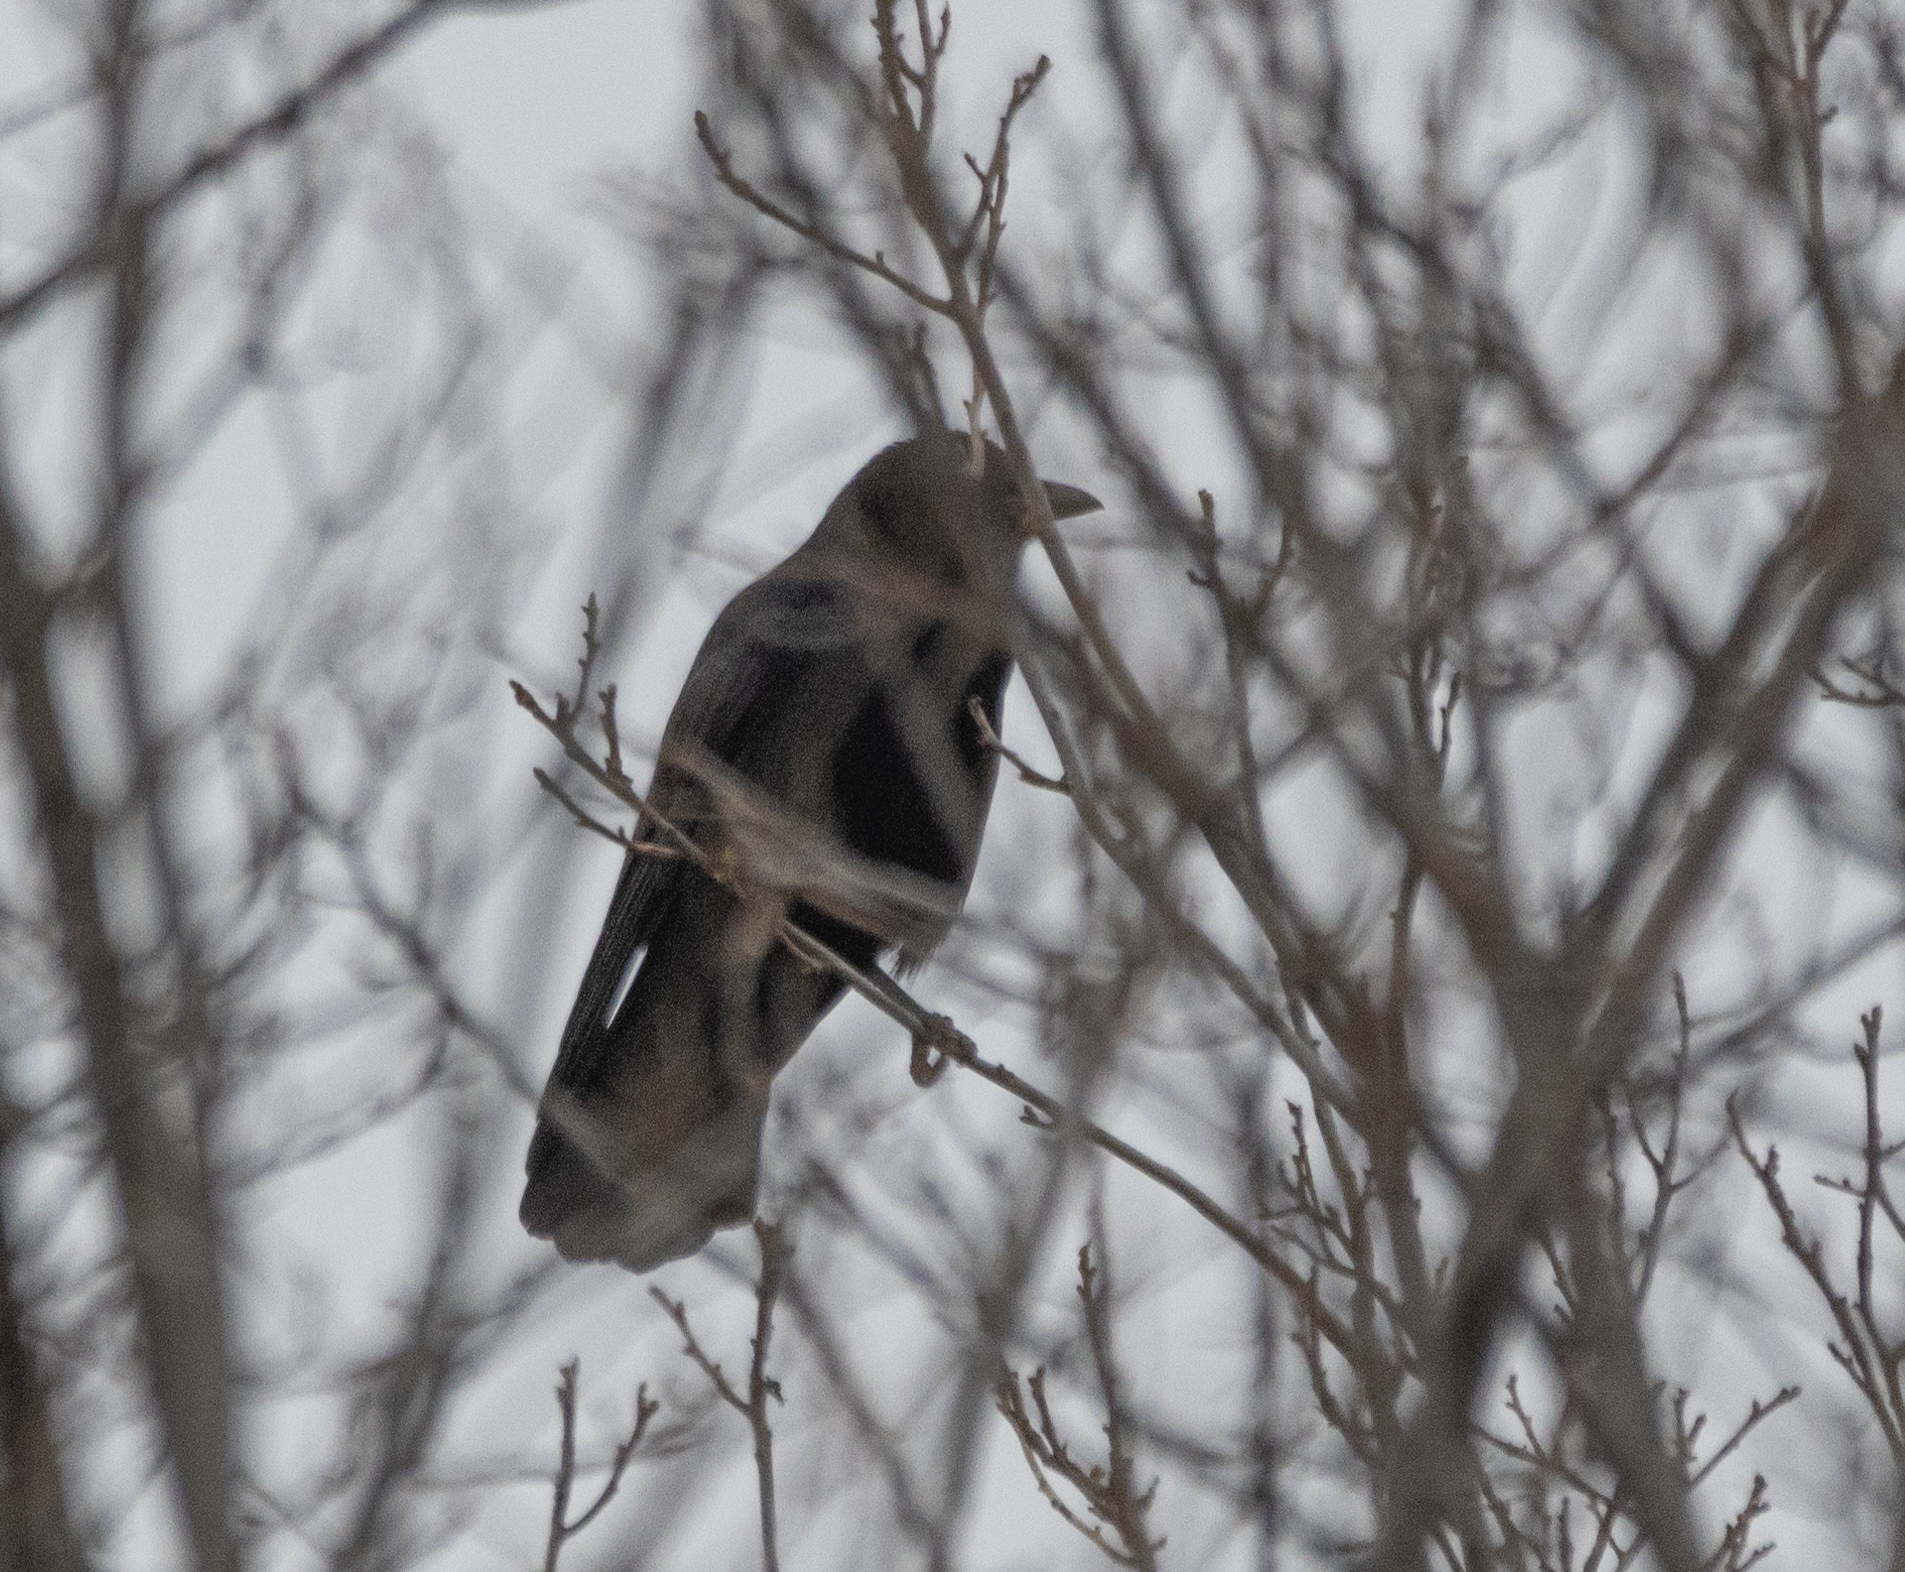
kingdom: Animalia
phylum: Chordata
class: Aves
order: Passeriformes
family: Corvidae
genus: Corvus
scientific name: Corvus brachyrhynchos
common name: American crow
